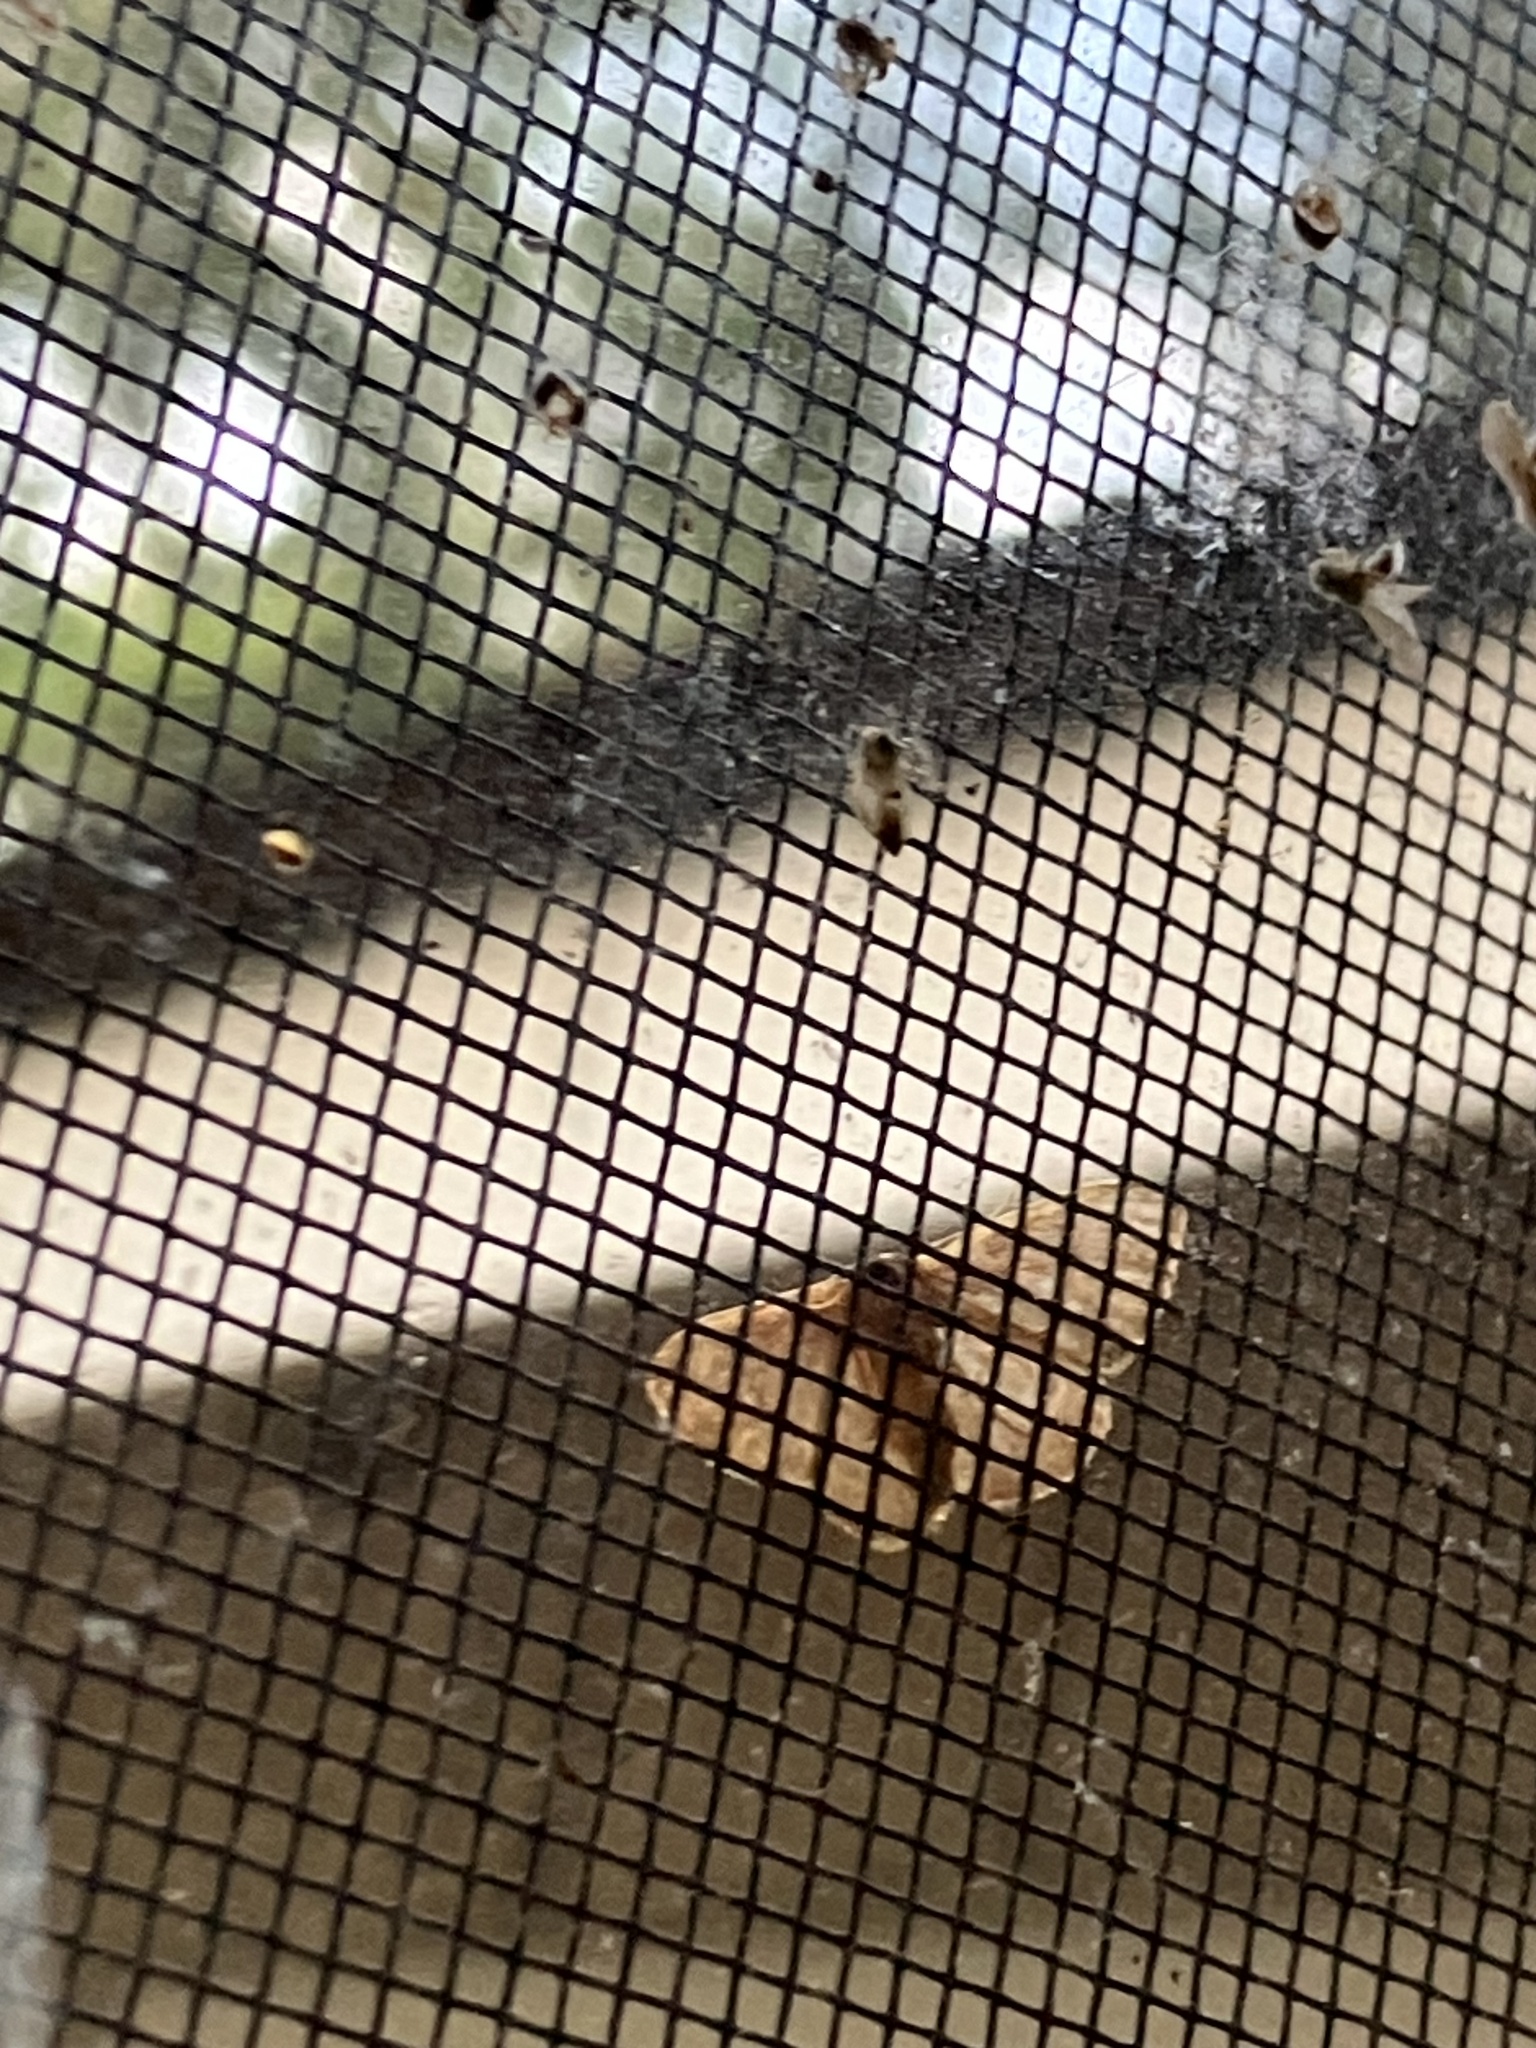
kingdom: Animalia
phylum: Arthropoda
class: Insecta
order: Lepidoptera
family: Geometridae
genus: Leptostales
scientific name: Leptostales pannaria
